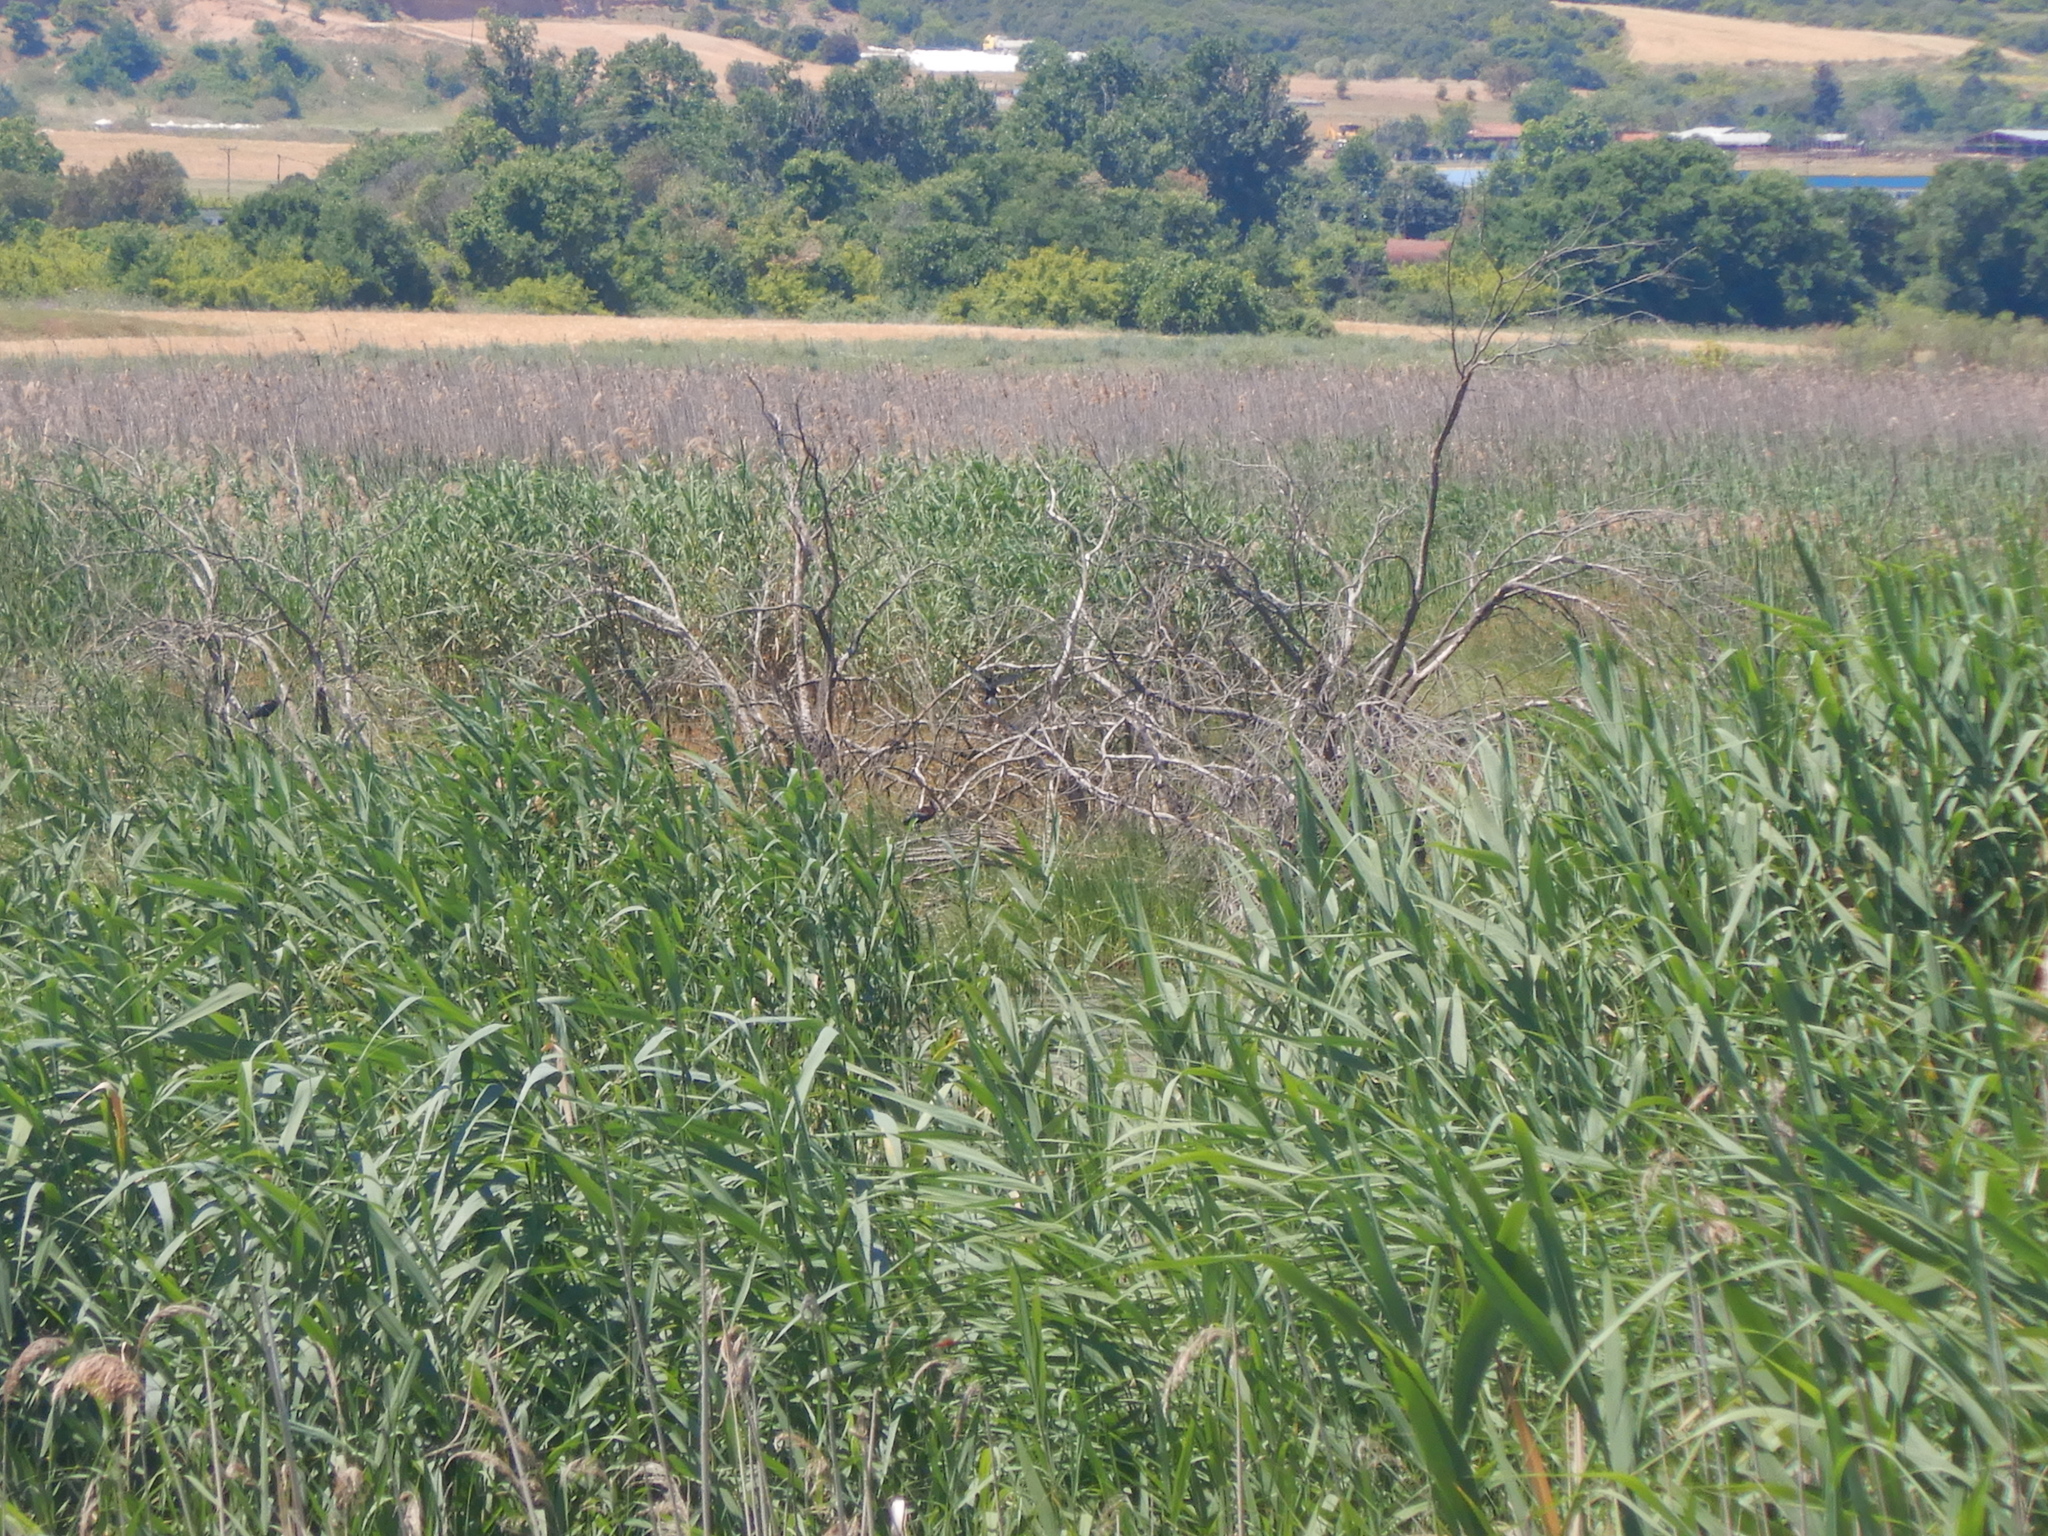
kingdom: Animalia
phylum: Chordata
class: Aves
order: Pelecaniformes
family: Threskiornithidae
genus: Plegadis
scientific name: Plegadis falcinellus
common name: Glossy ibis
